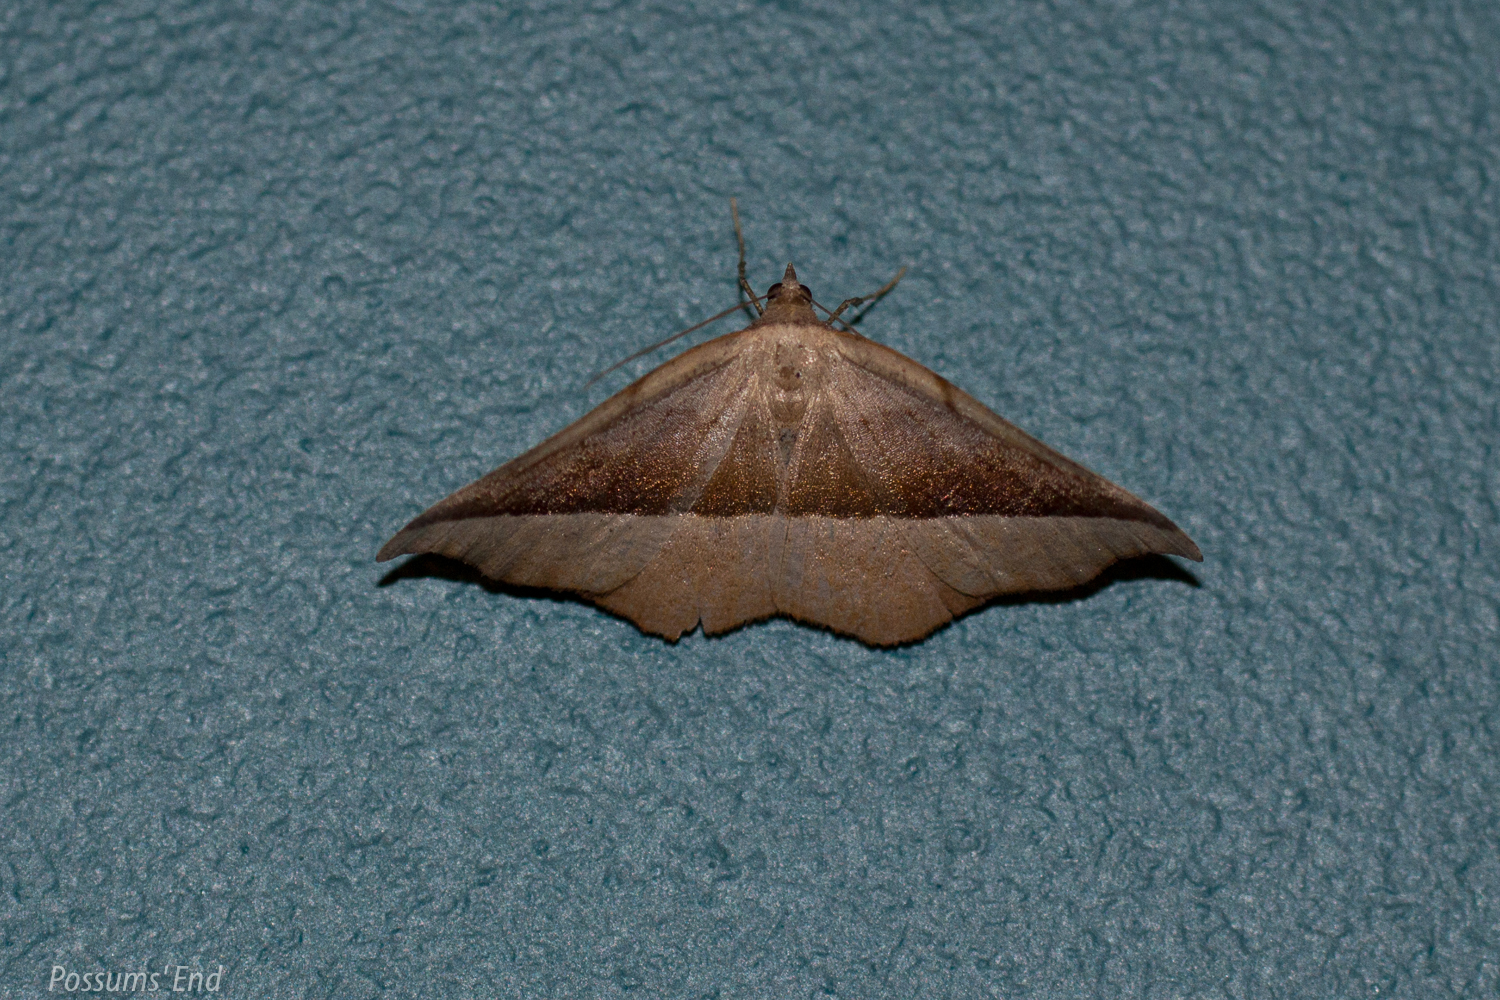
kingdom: Animalia
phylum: Arthropoda
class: Insecta
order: Lepidoptera
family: Geometridae
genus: Sarisa
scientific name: Sarisa muriferata
